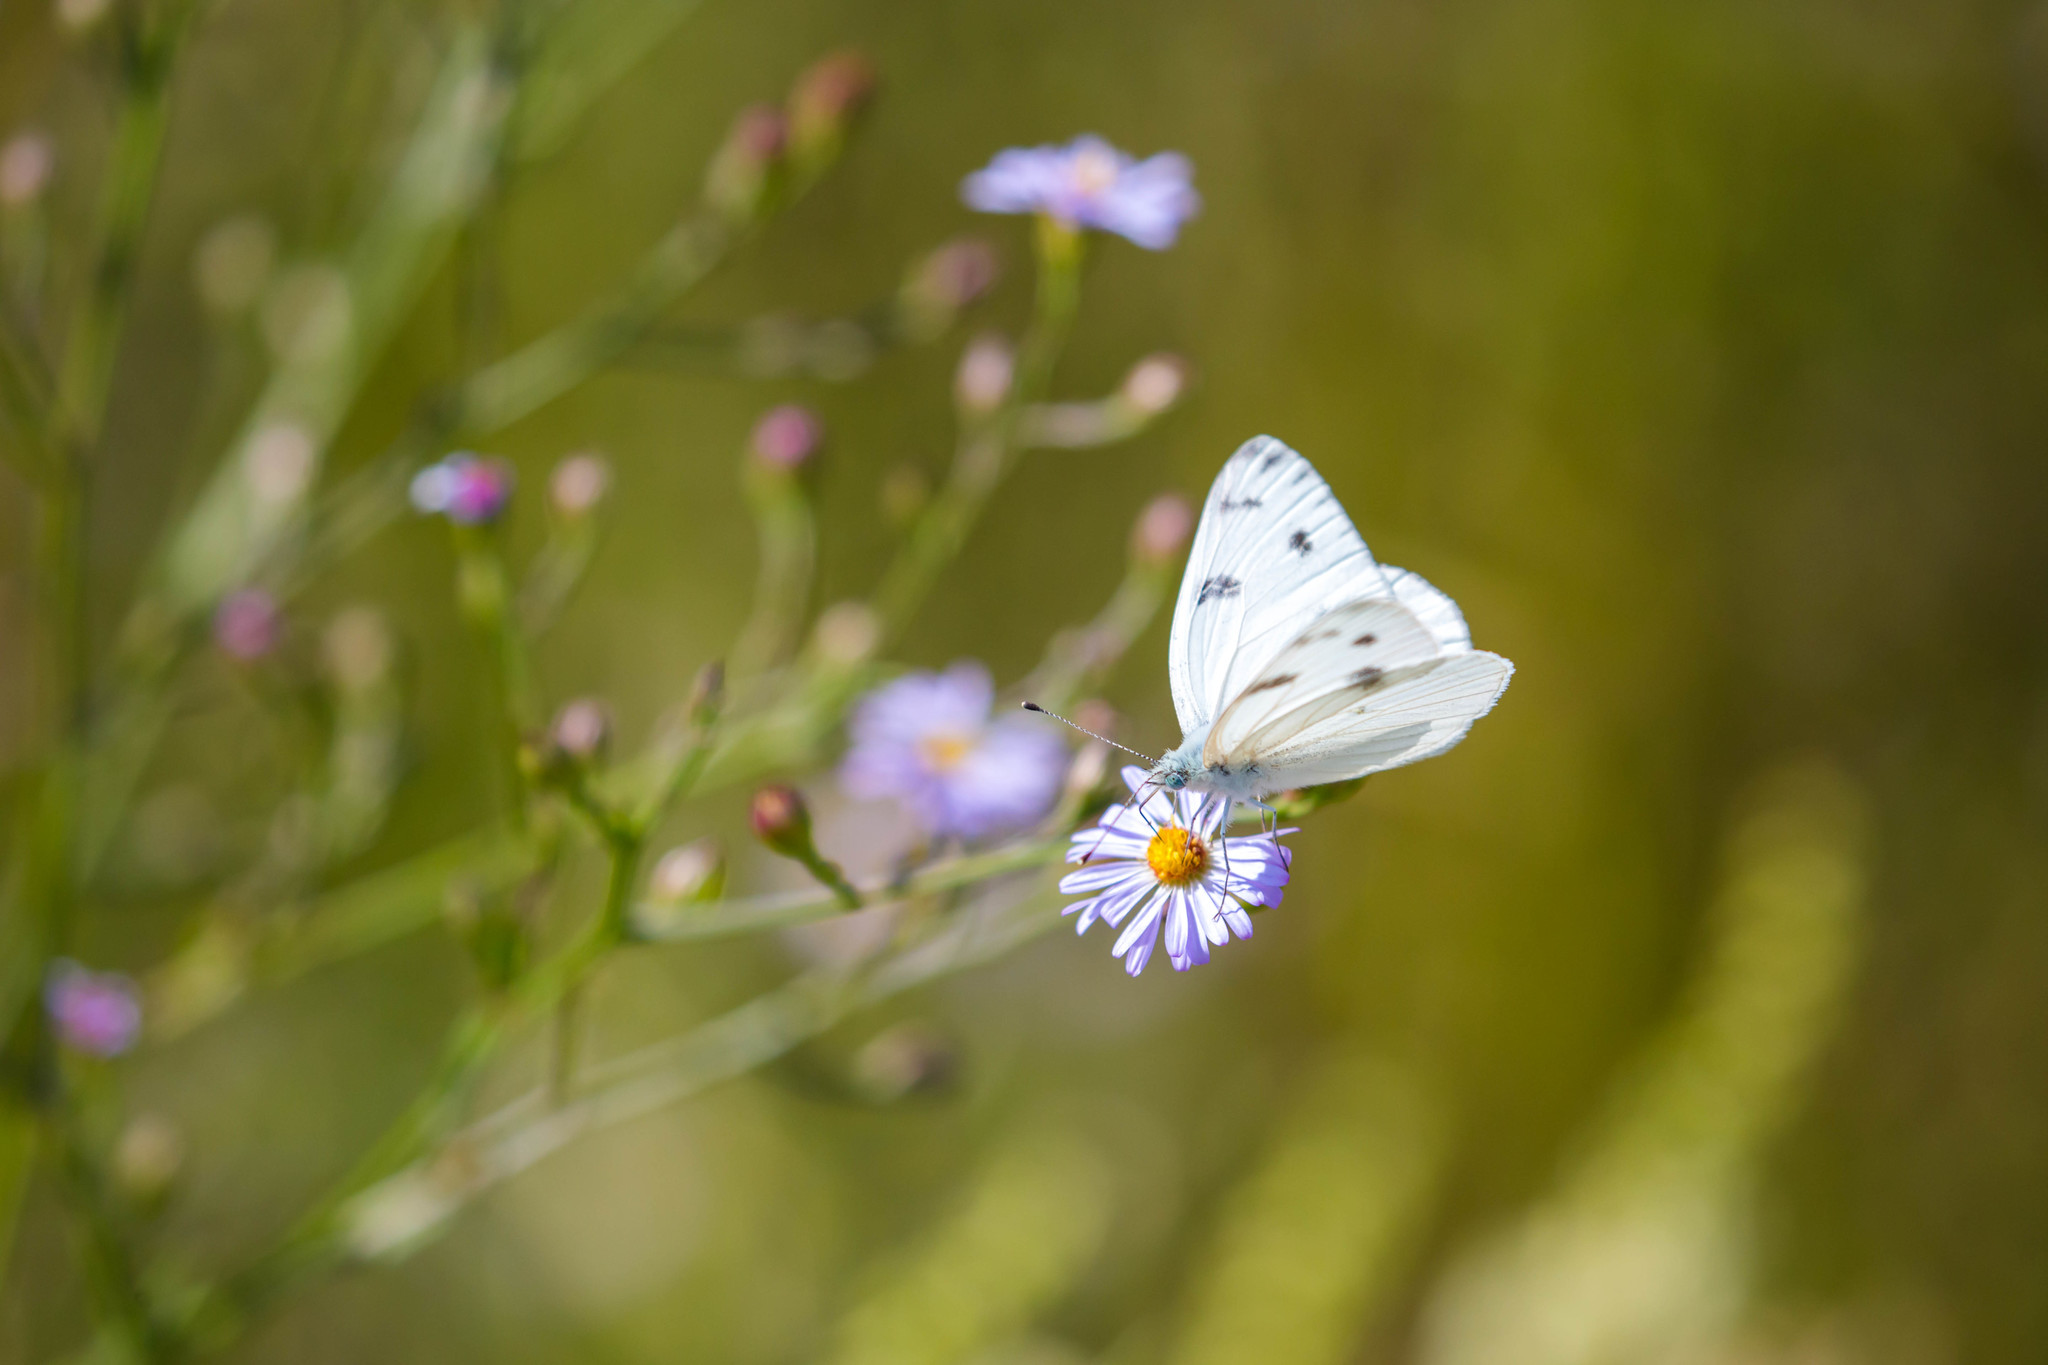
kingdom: Animalia
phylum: Arthropoda
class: Insecta
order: Lepidoptera
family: Pieridae
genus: Pontia
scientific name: Pontia protodice
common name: Checkered white
